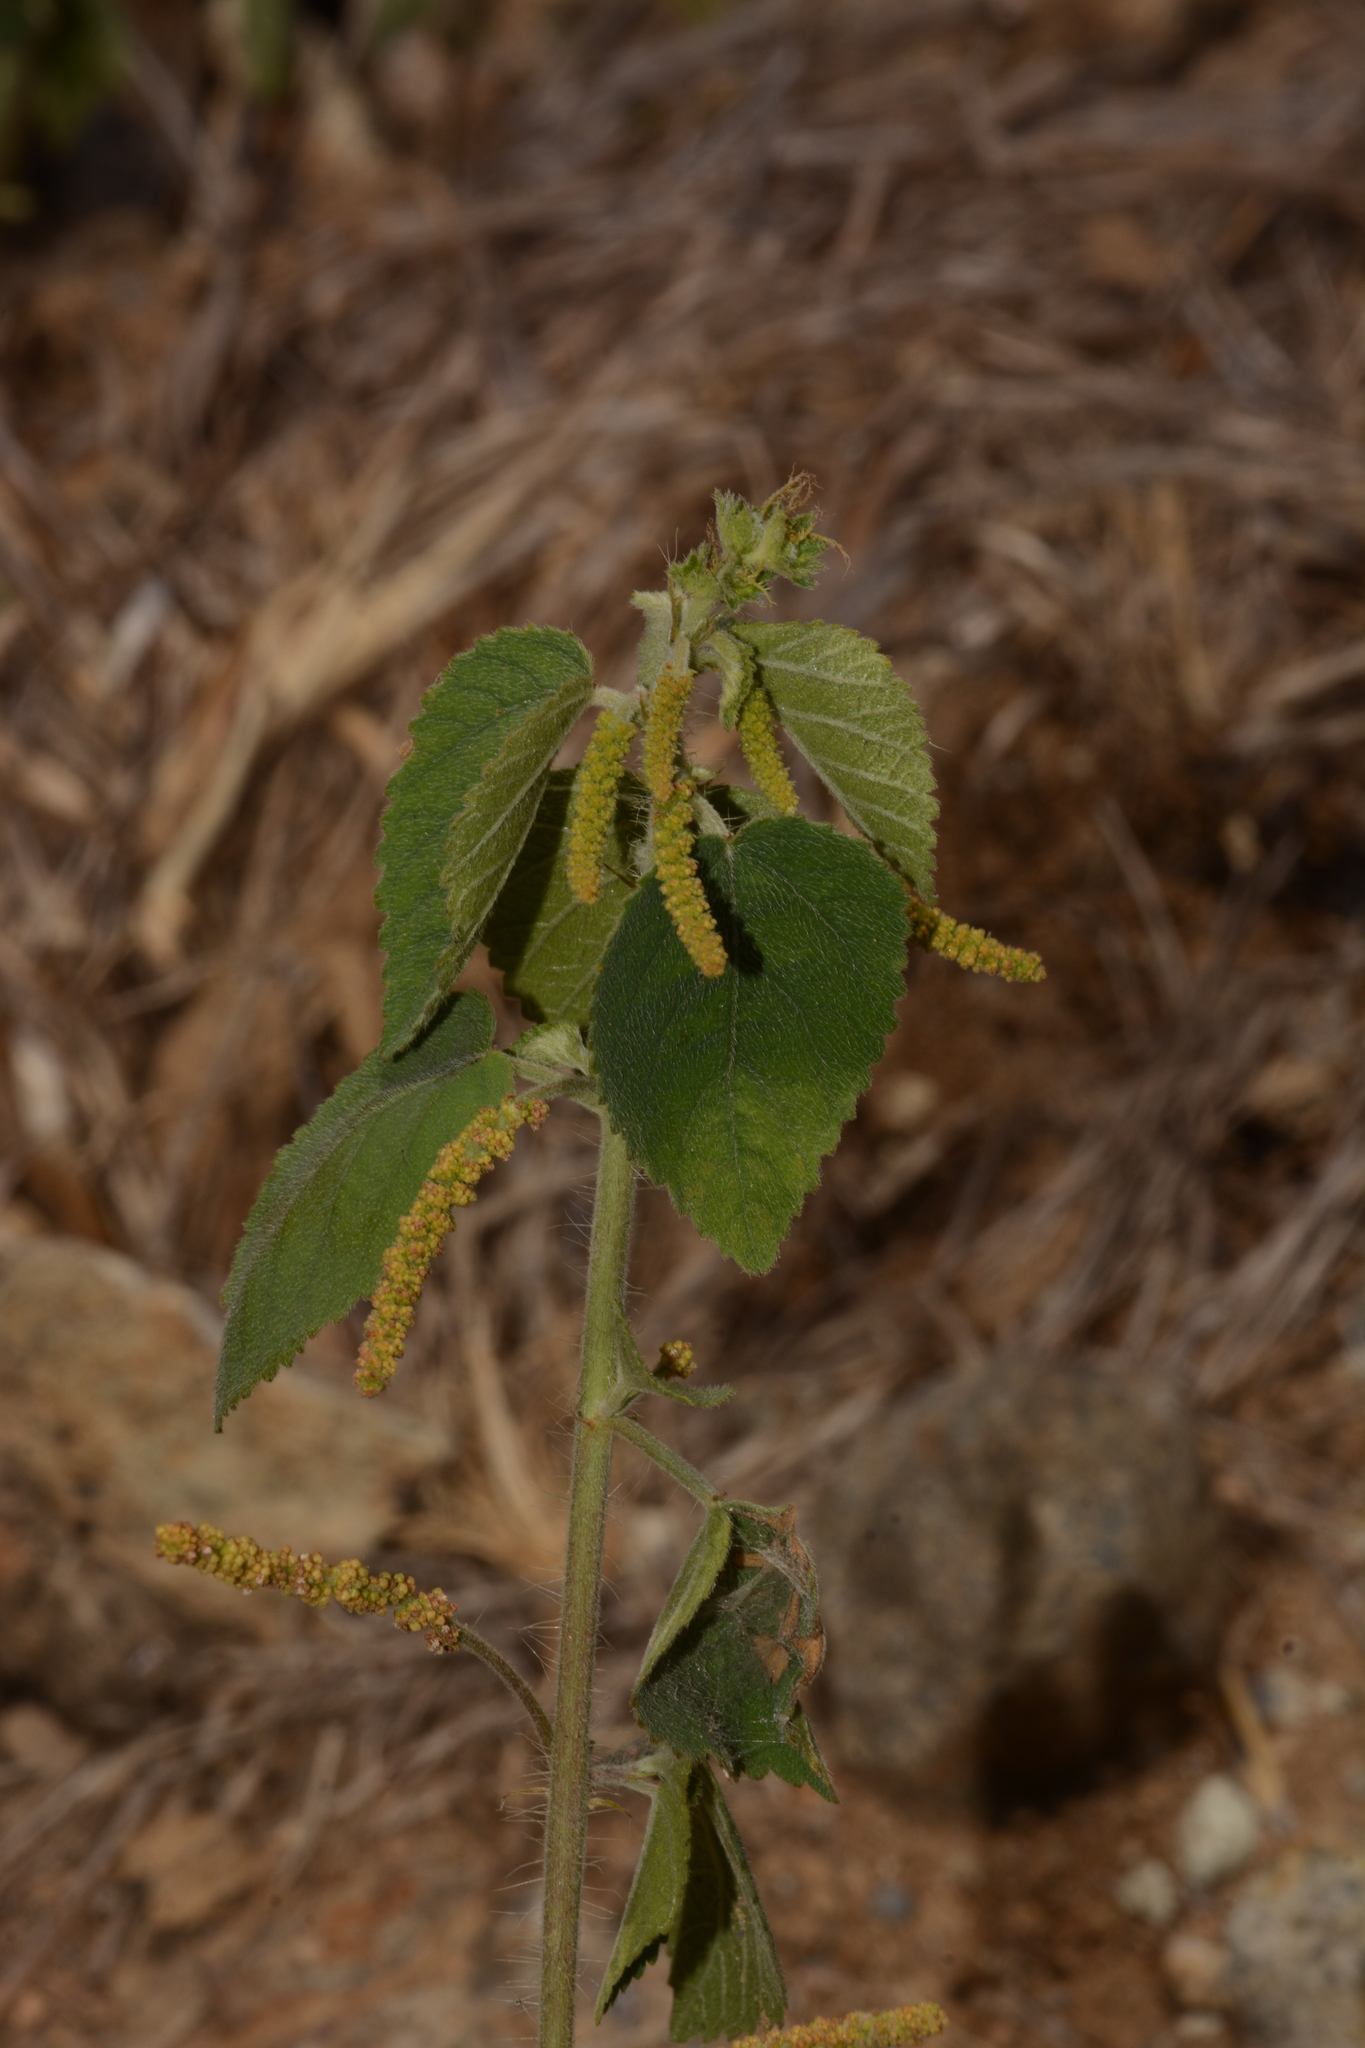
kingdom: Plantae
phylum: Tracheophyta
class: Magnoliopsida
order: Malpighiales
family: Euphorbiaceae
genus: Acalypha
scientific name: Acalypha capitata
